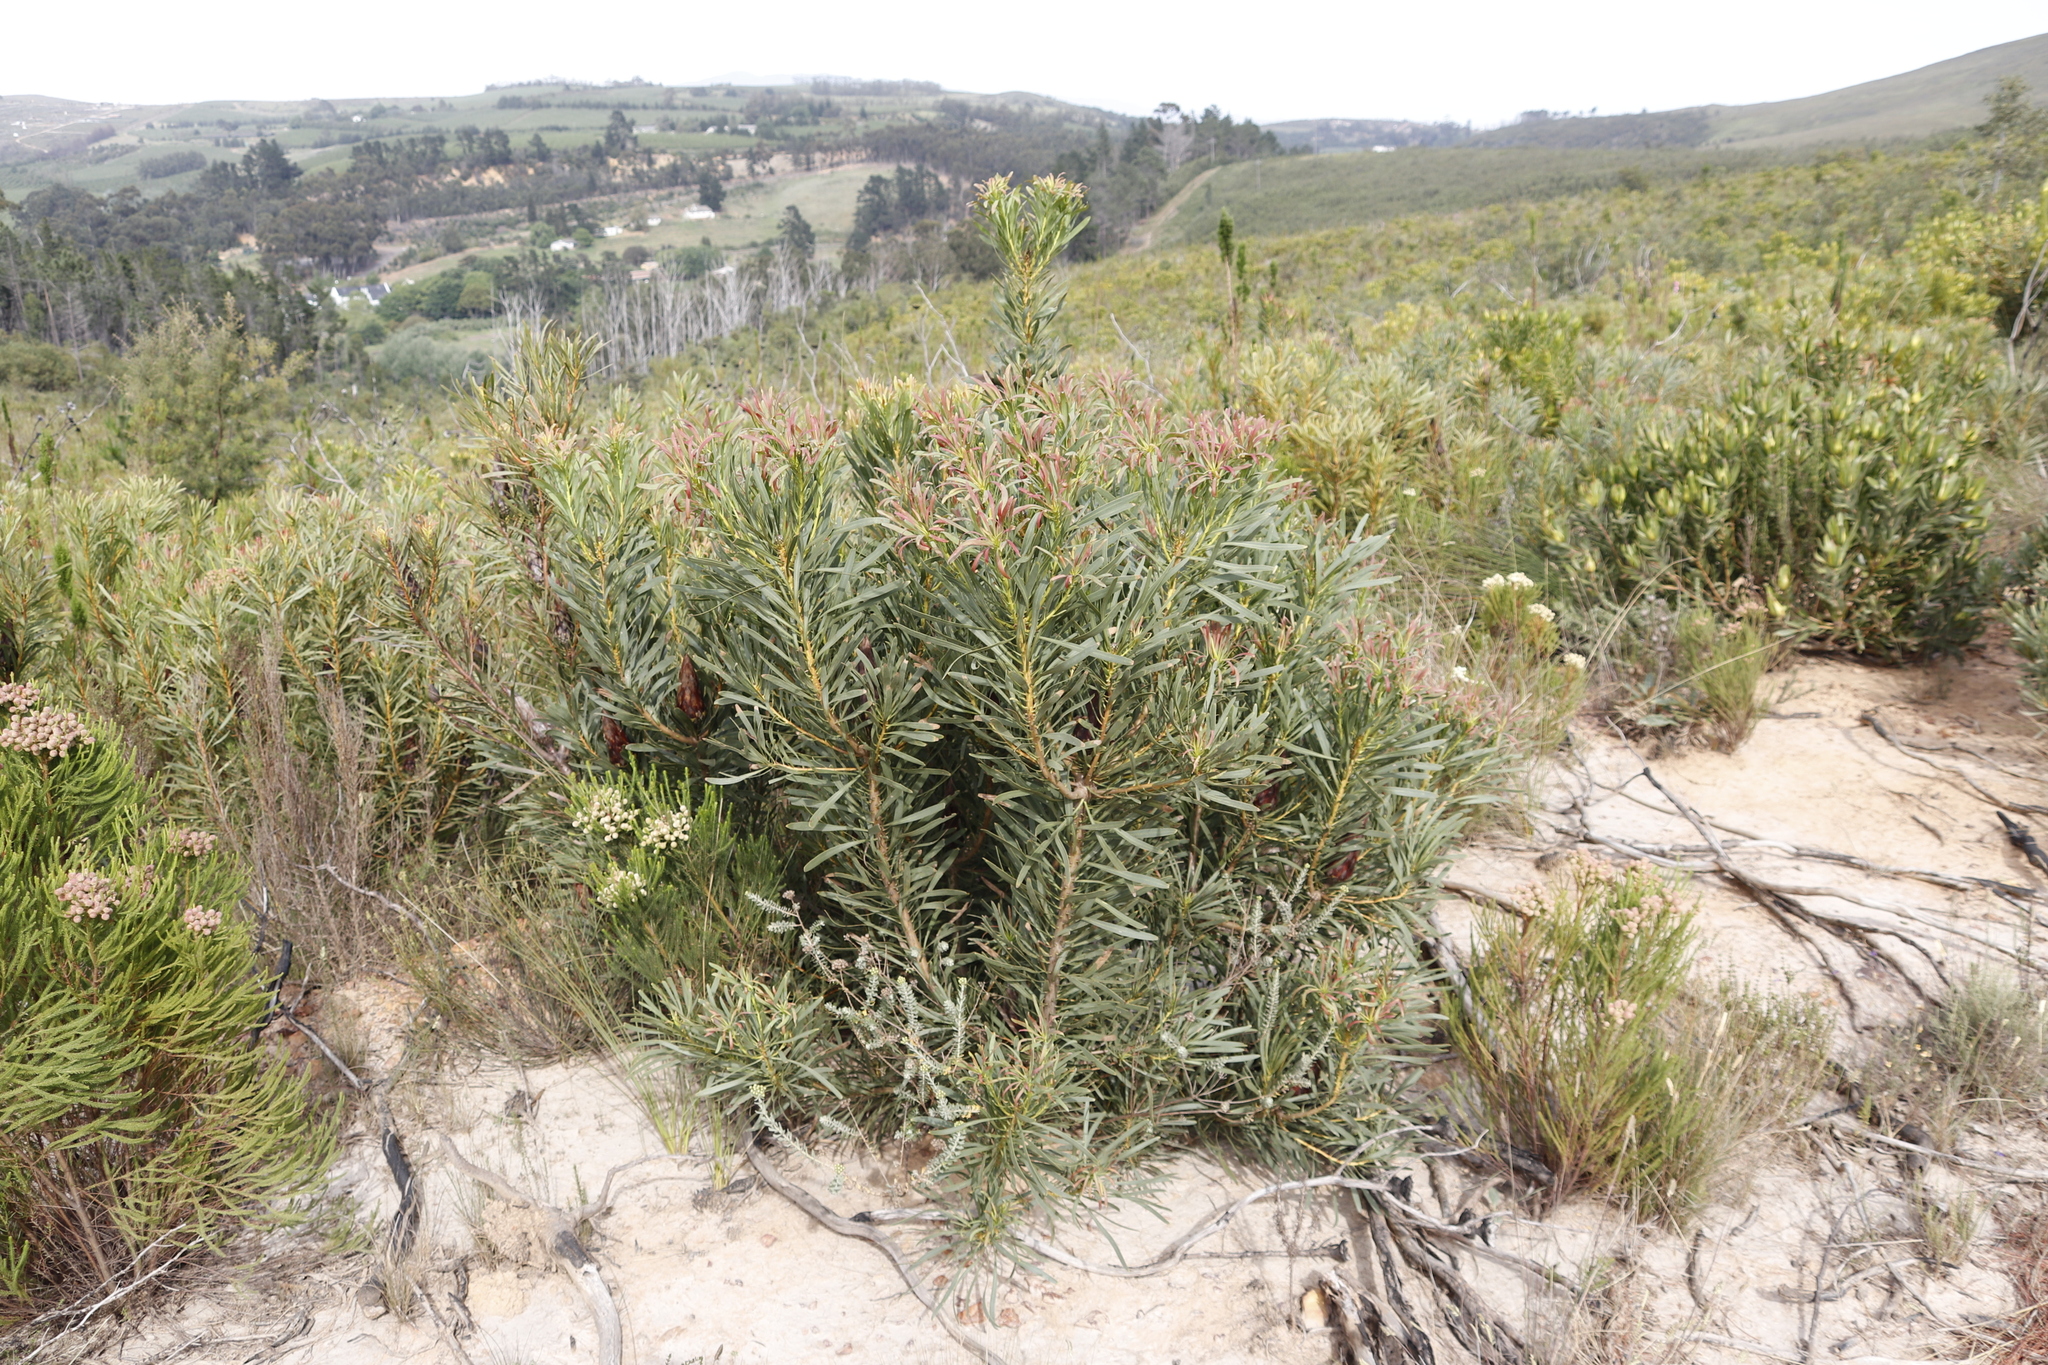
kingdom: Plantae
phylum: Tracheophyta
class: Magnoliopsida
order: Proteales
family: Proteaceae
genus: Protea
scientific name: Protea repens
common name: Sugarbush
